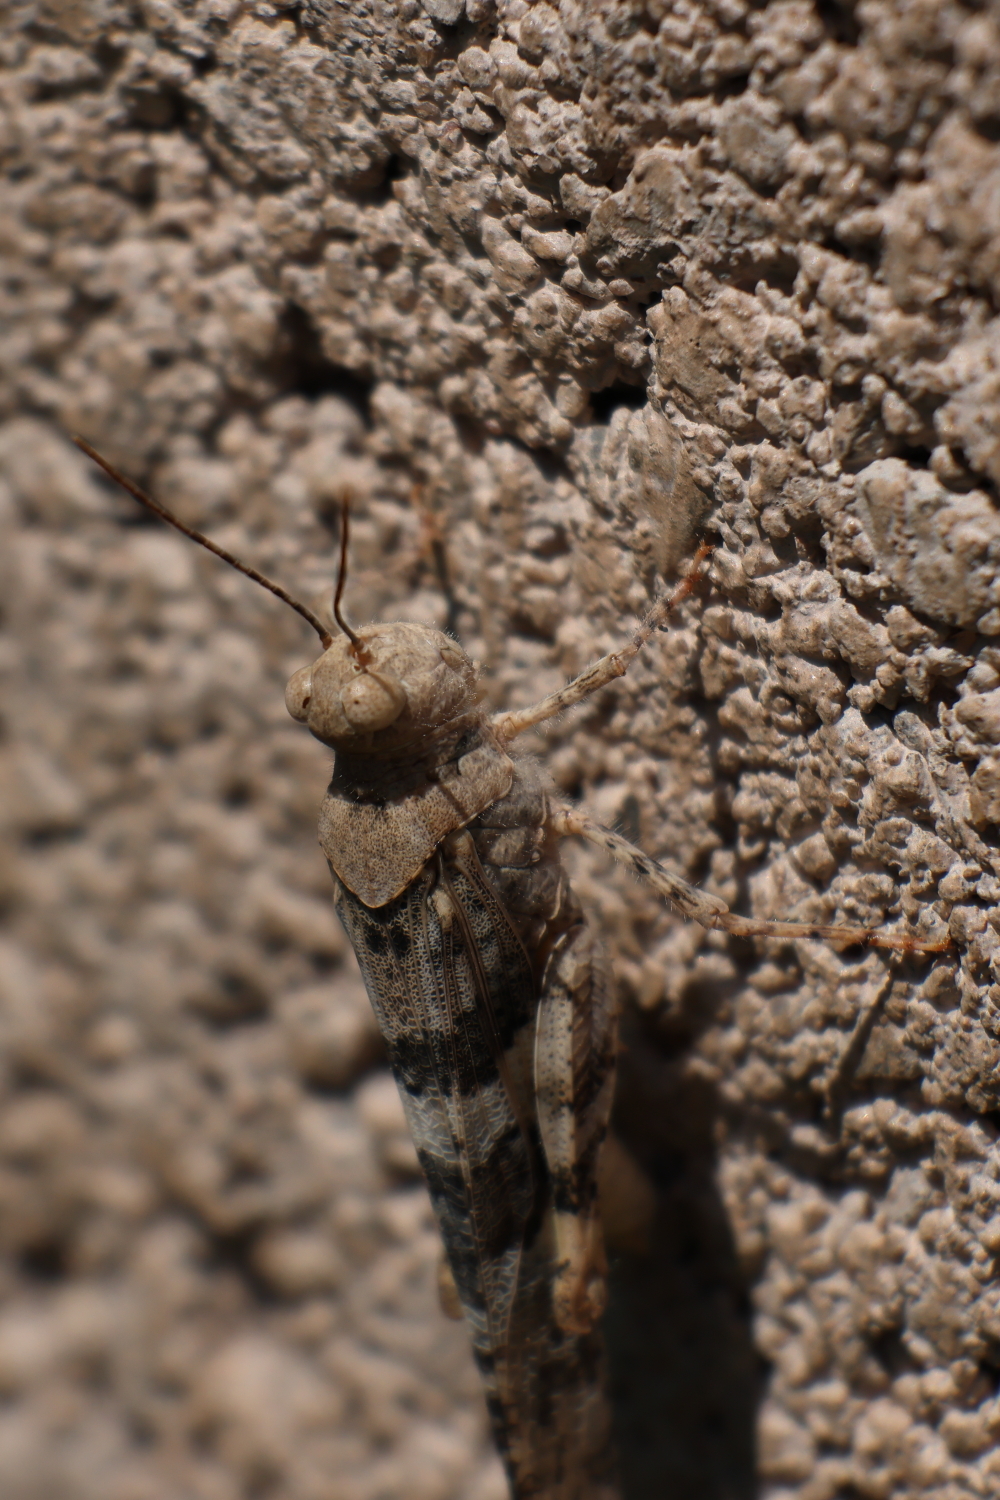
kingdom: Animalia
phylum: Arthropoda
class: Insecta
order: Orthoptera
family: Acrididae
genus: Trimerotropis
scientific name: Trimerotropis pallidipennis
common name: Pallid-winged grasshopper
